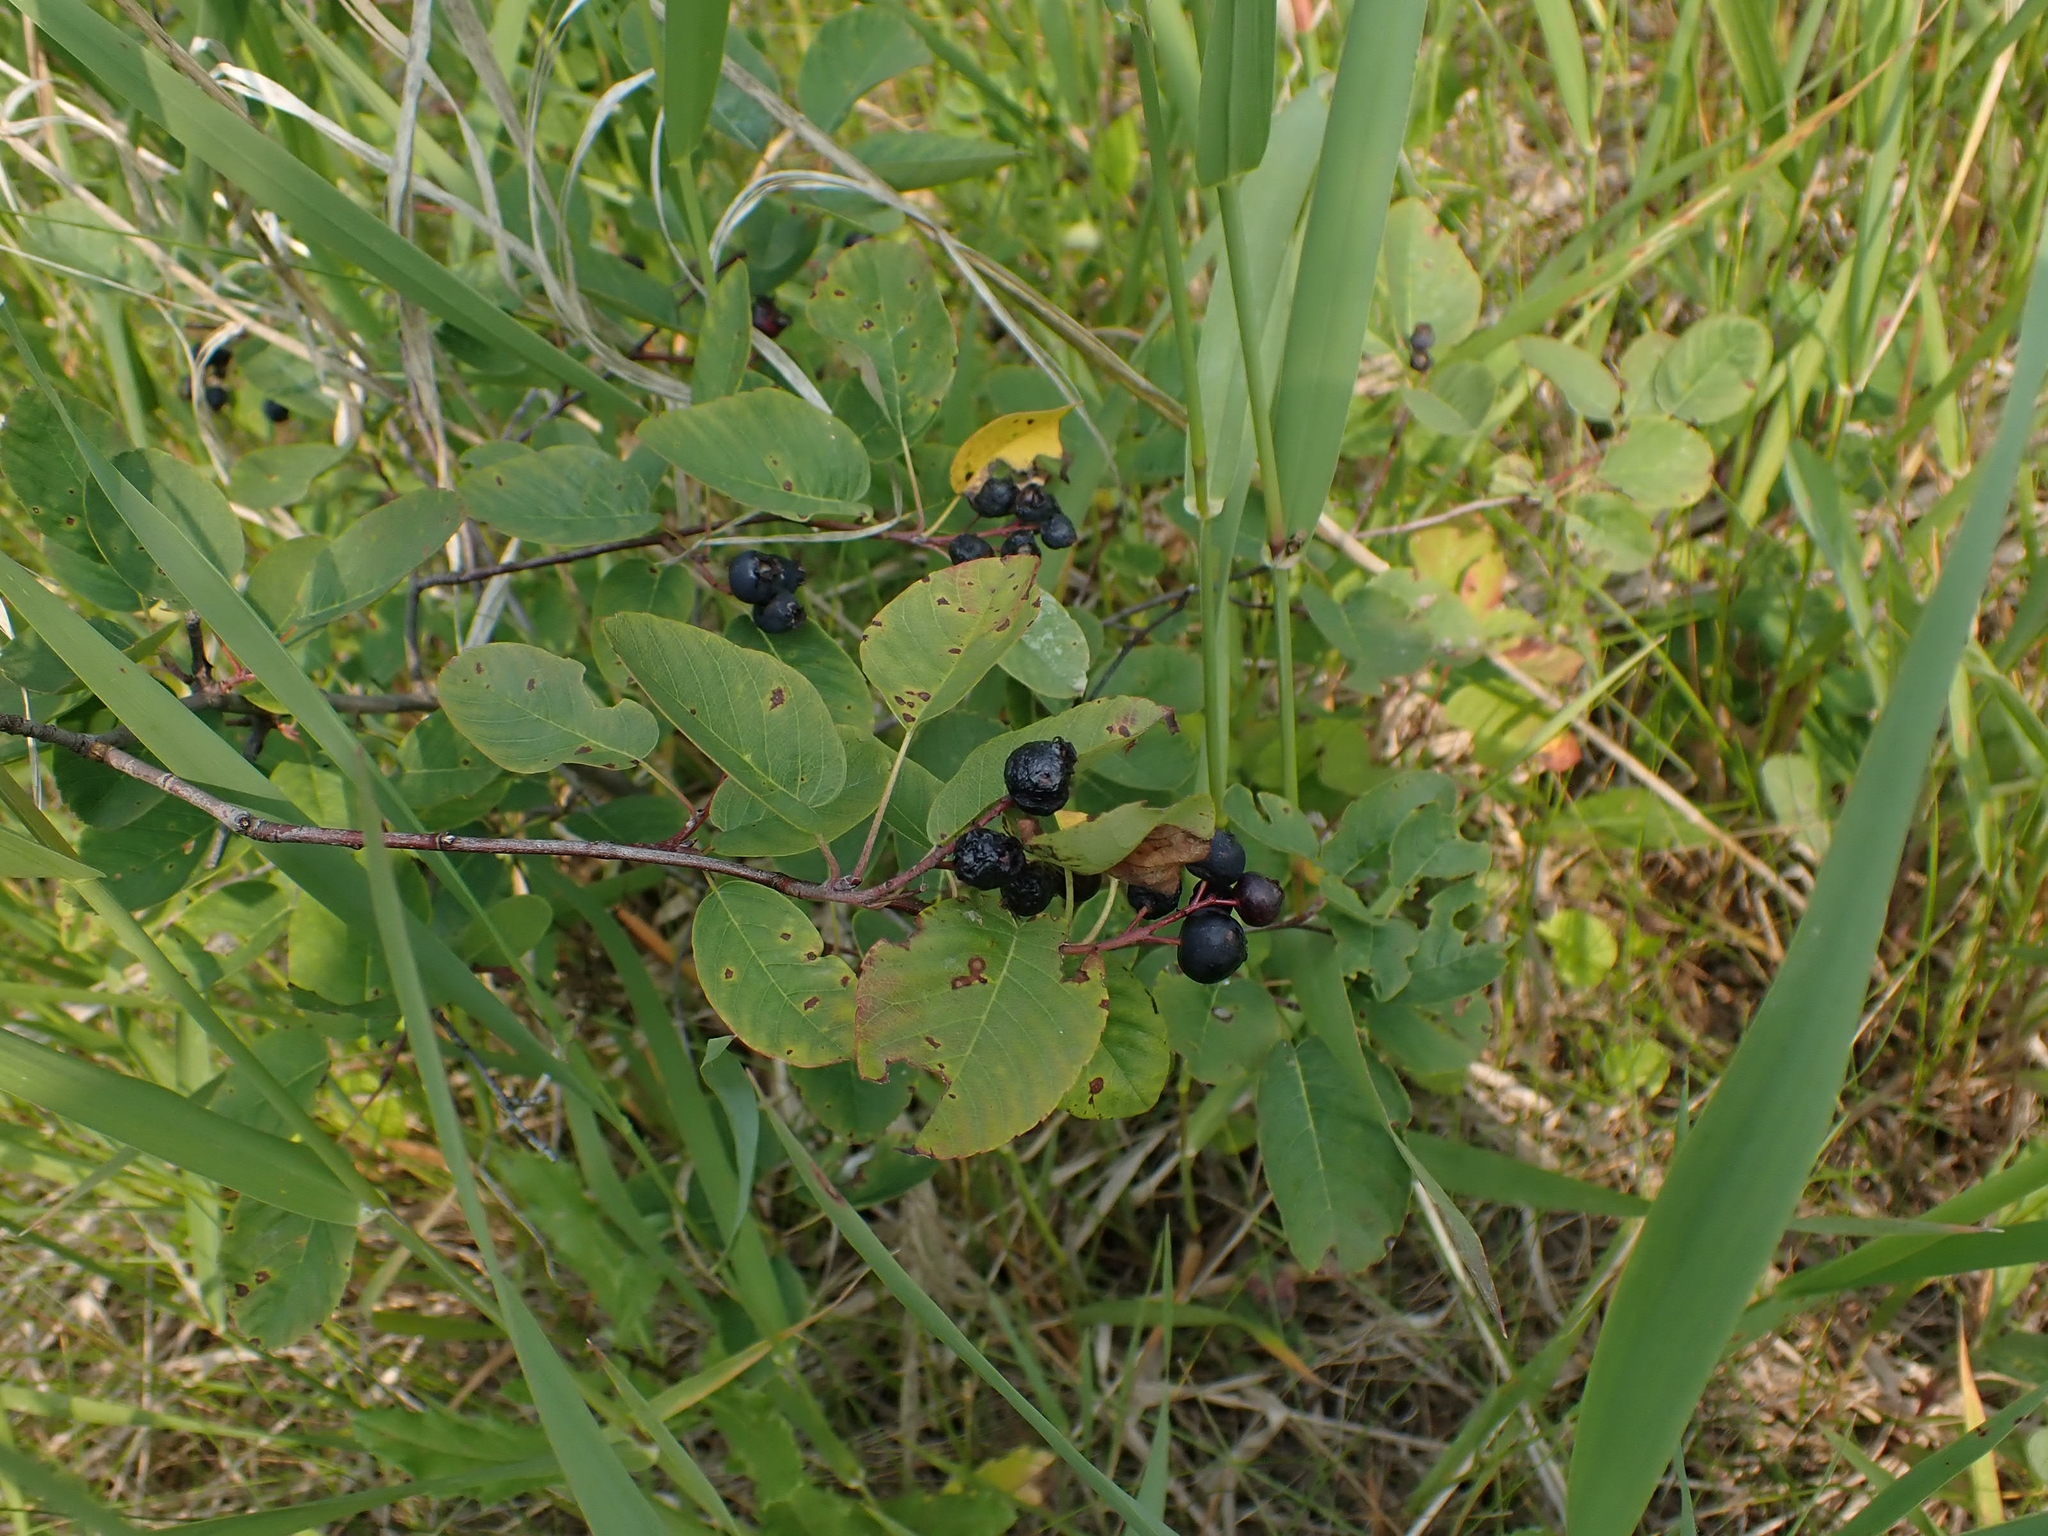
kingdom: Plantae
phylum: Tracheophyta
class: Magnoliopsida
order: Rosales
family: Rosaceae
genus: Amelanchier
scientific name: Amelanchier alnifolia
